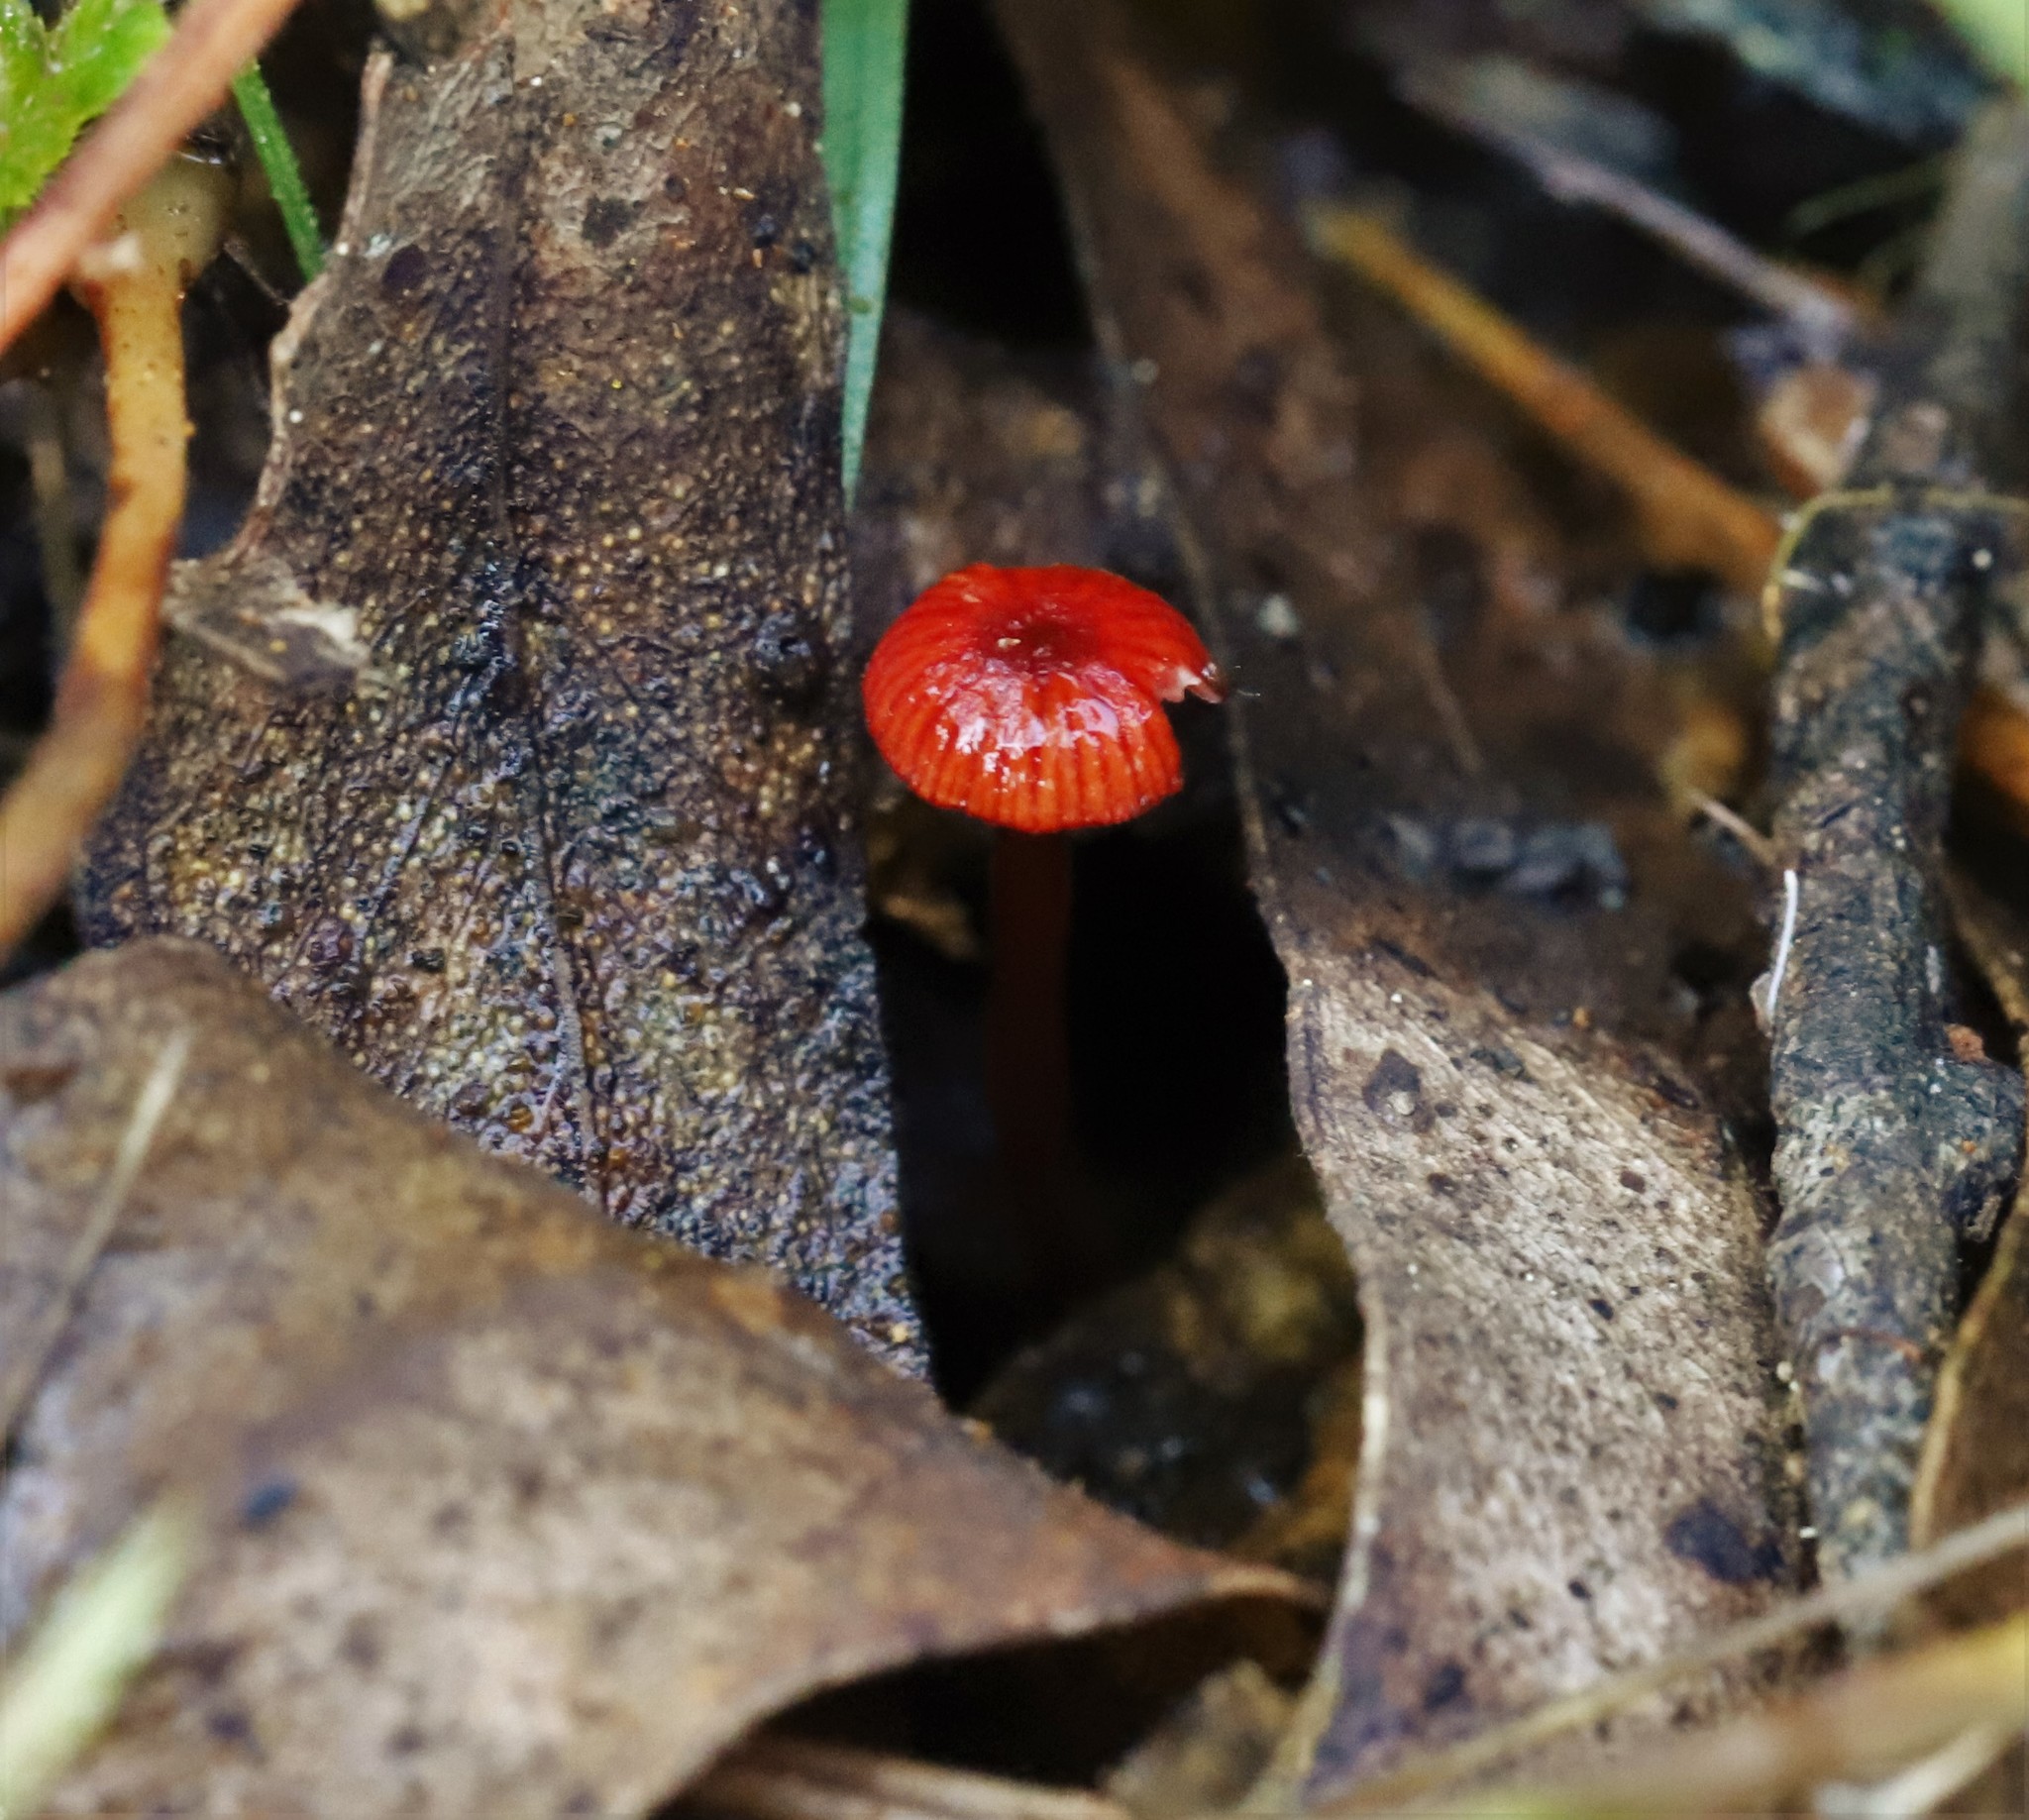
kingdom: Fungi
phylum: Basidiomycota
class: Agaricomycetes
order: Agaricales
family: Mycenaceae
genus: Cruentomycena
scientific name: Cruentomycena viscidocruenta
